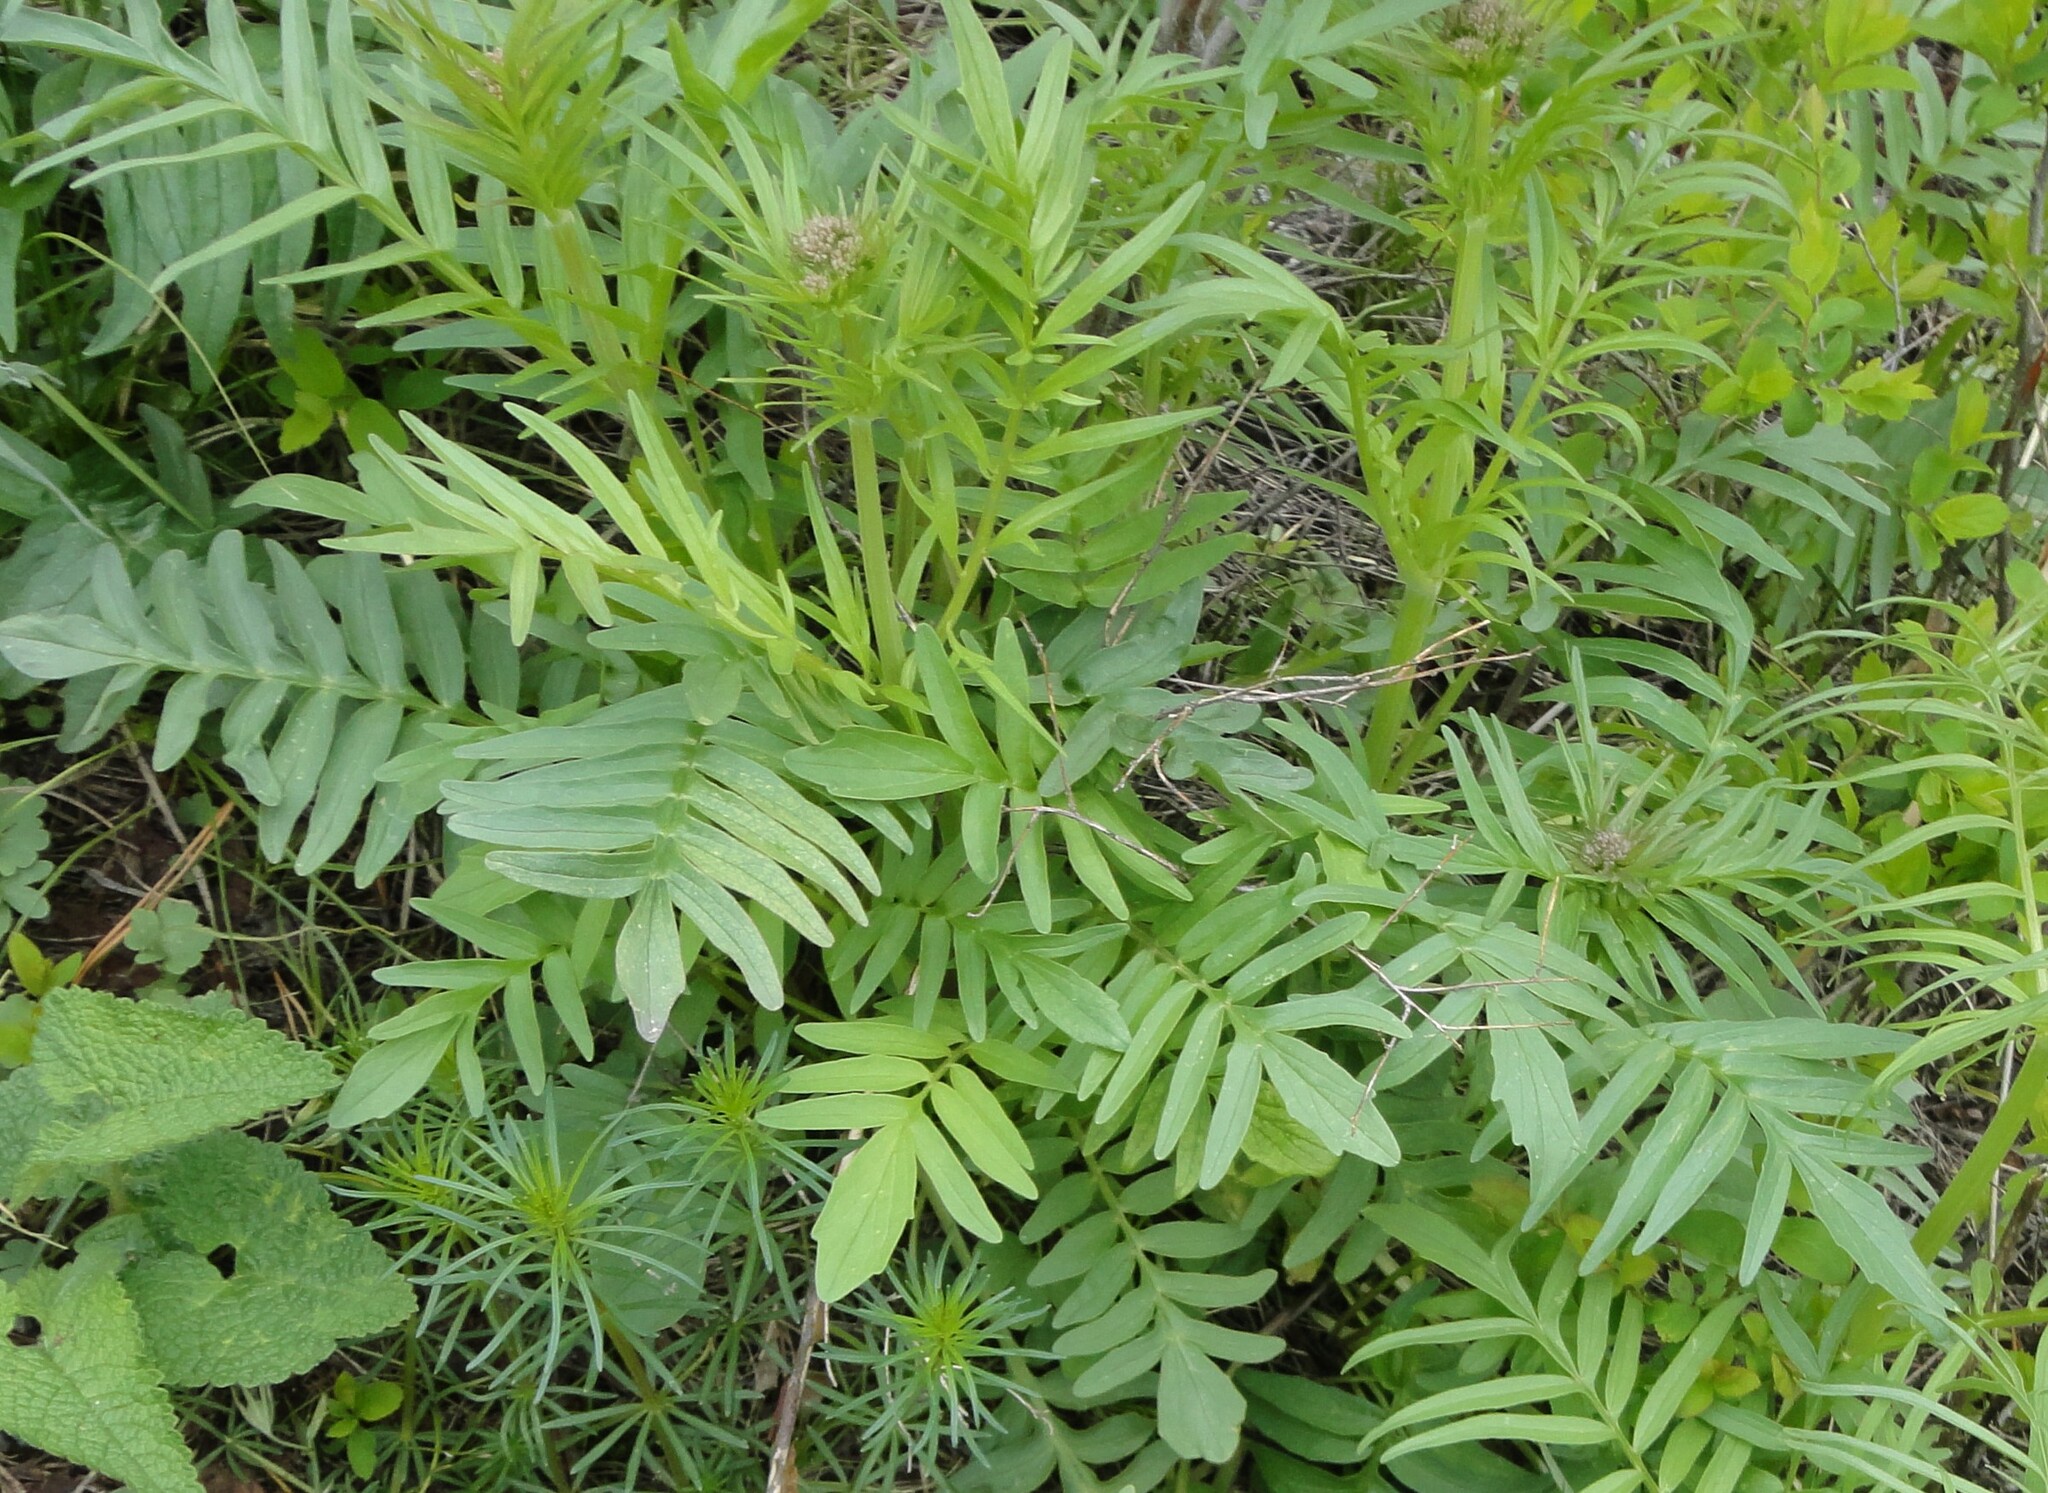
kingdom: Plantae
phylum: Tracheophyta
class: Magnoliopsida
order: Dipsacales
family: Caprifoliaceae
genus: Valeriana
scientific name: Valeriana rossica
